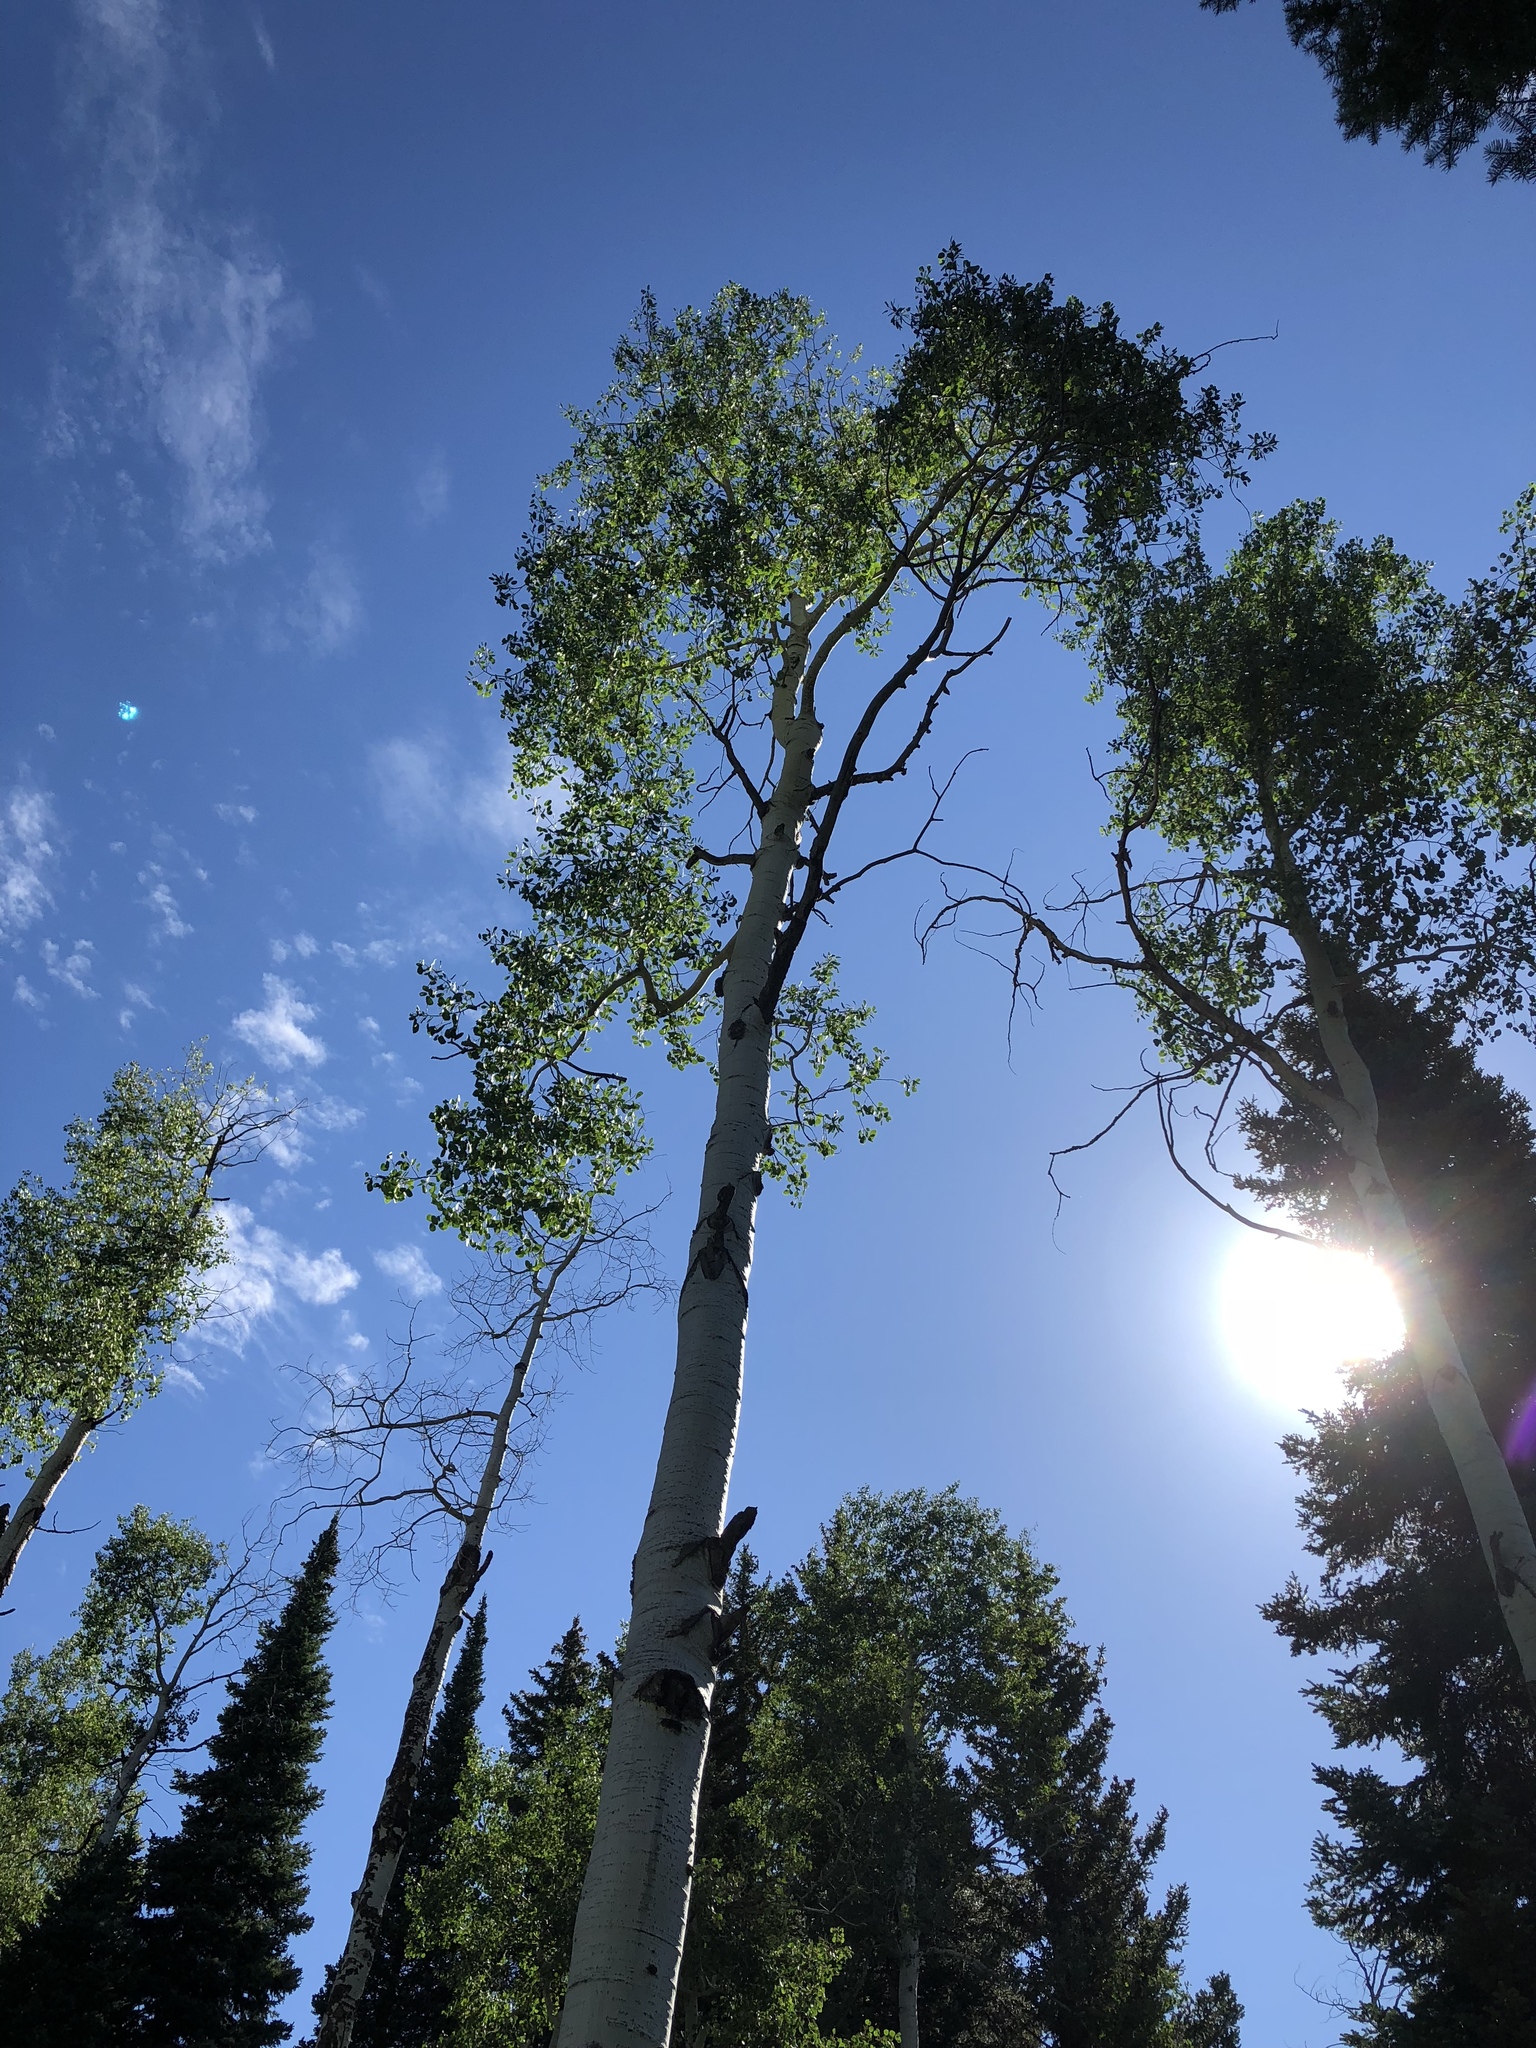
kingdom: Plantae
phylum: Tracheophyta
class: Magnoliopsida
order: Malpighiales
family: Salicaceae
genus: Populus
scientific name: Populus tremuloides
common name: Quaking aspen
